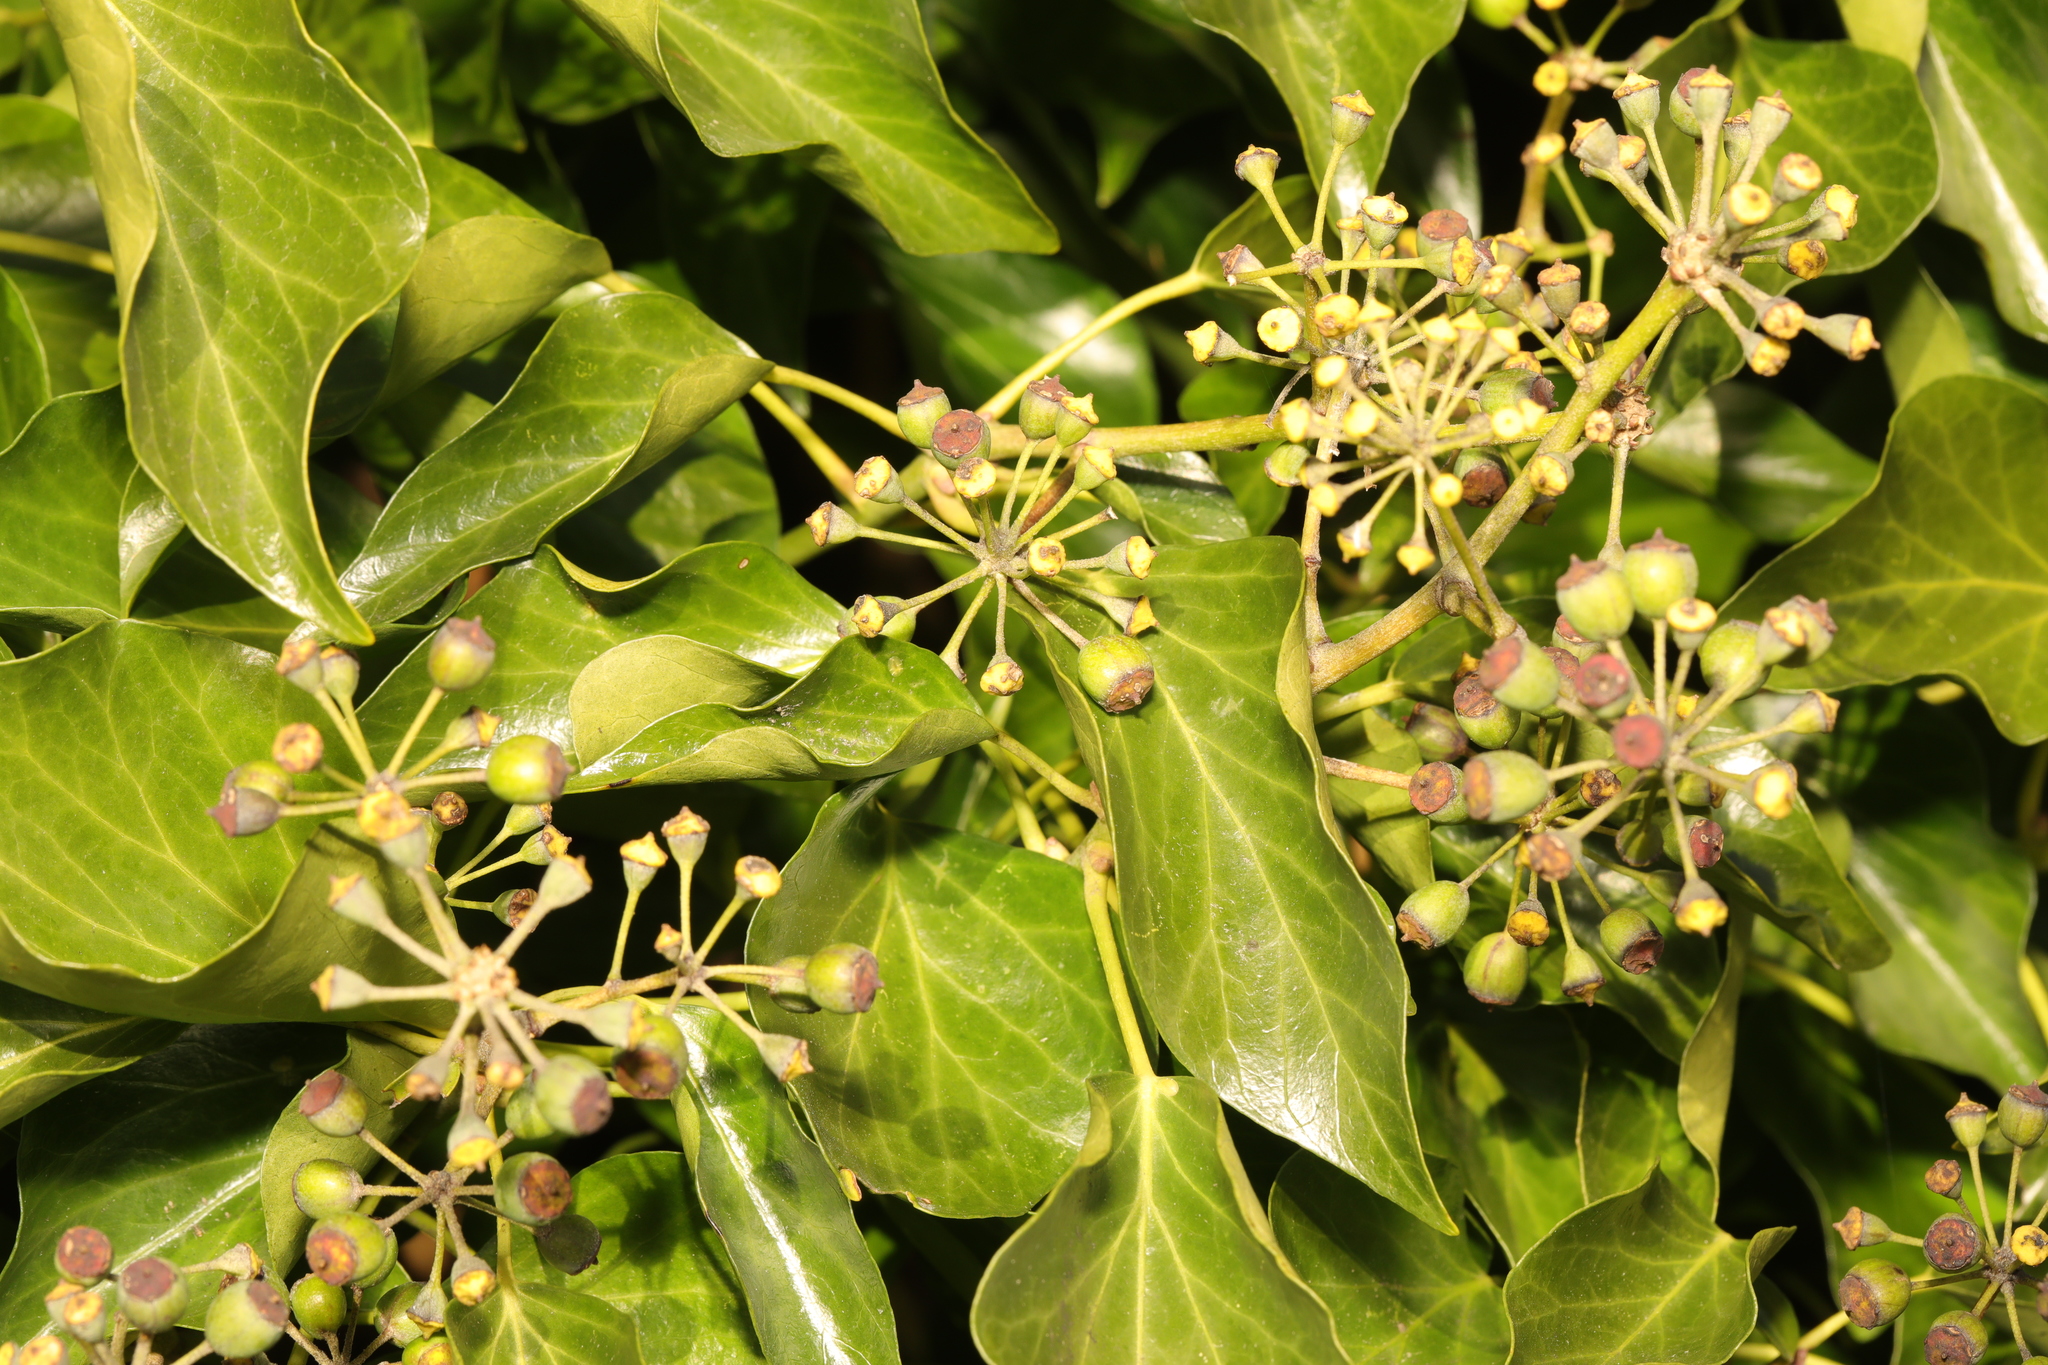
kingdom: Plantae
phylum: Tracheophyta
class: Magnoliopsida
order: Apiales
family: Araliaceae
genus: Hedera
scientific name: Hedera helix
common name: Ivy
